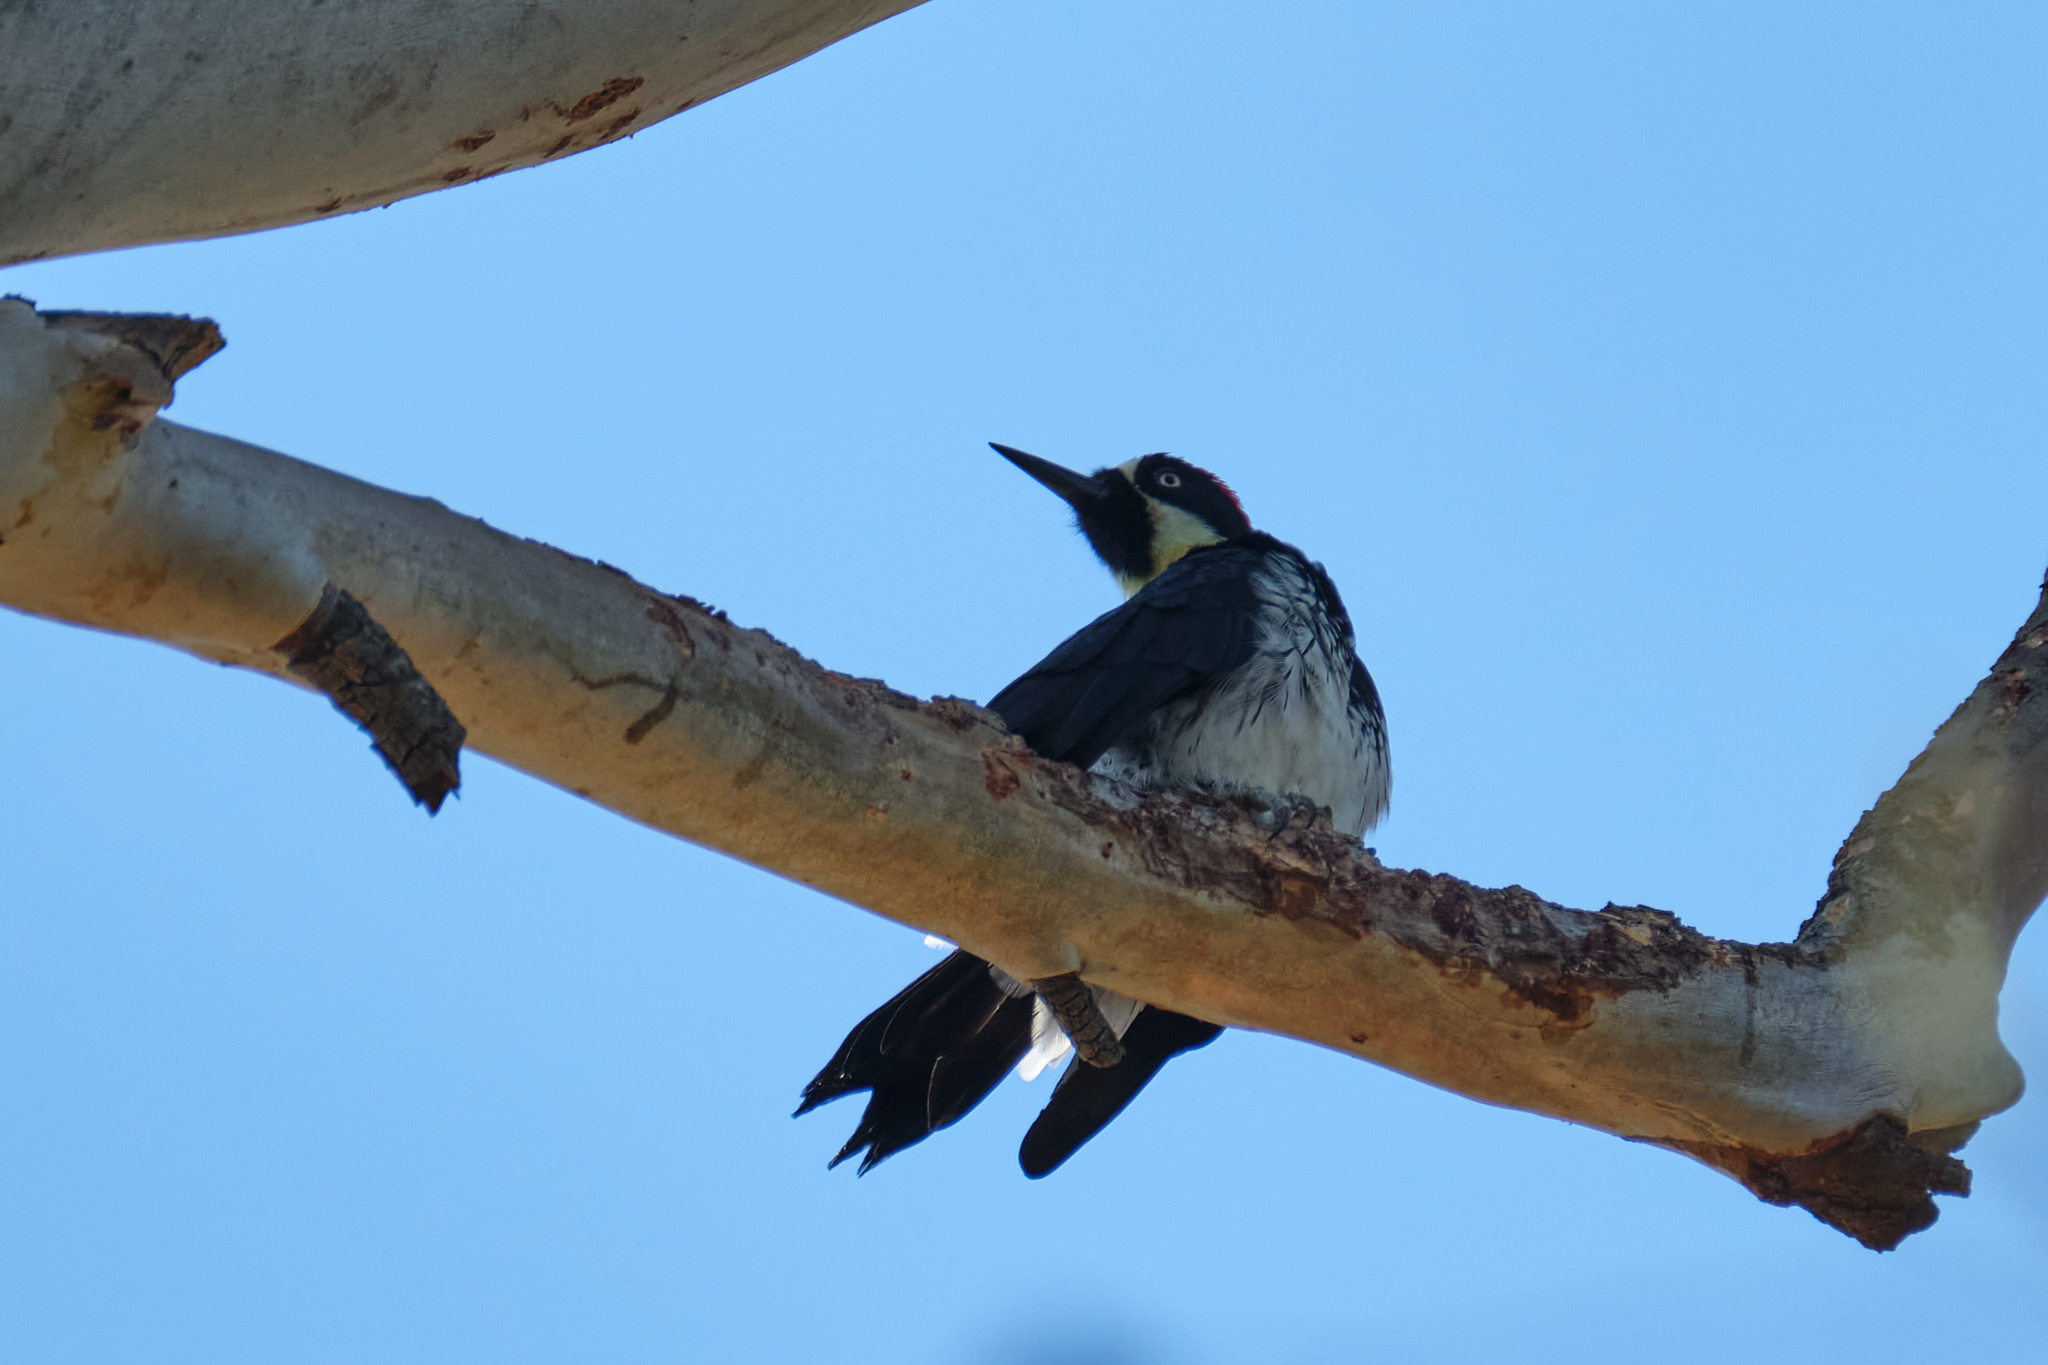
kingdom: Animalia
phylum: Chordata
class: Aves
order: Piciformes
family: Picidae
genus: Melanerpes
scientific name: Melanerpes formicivorus
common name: Acorn woodpecker
